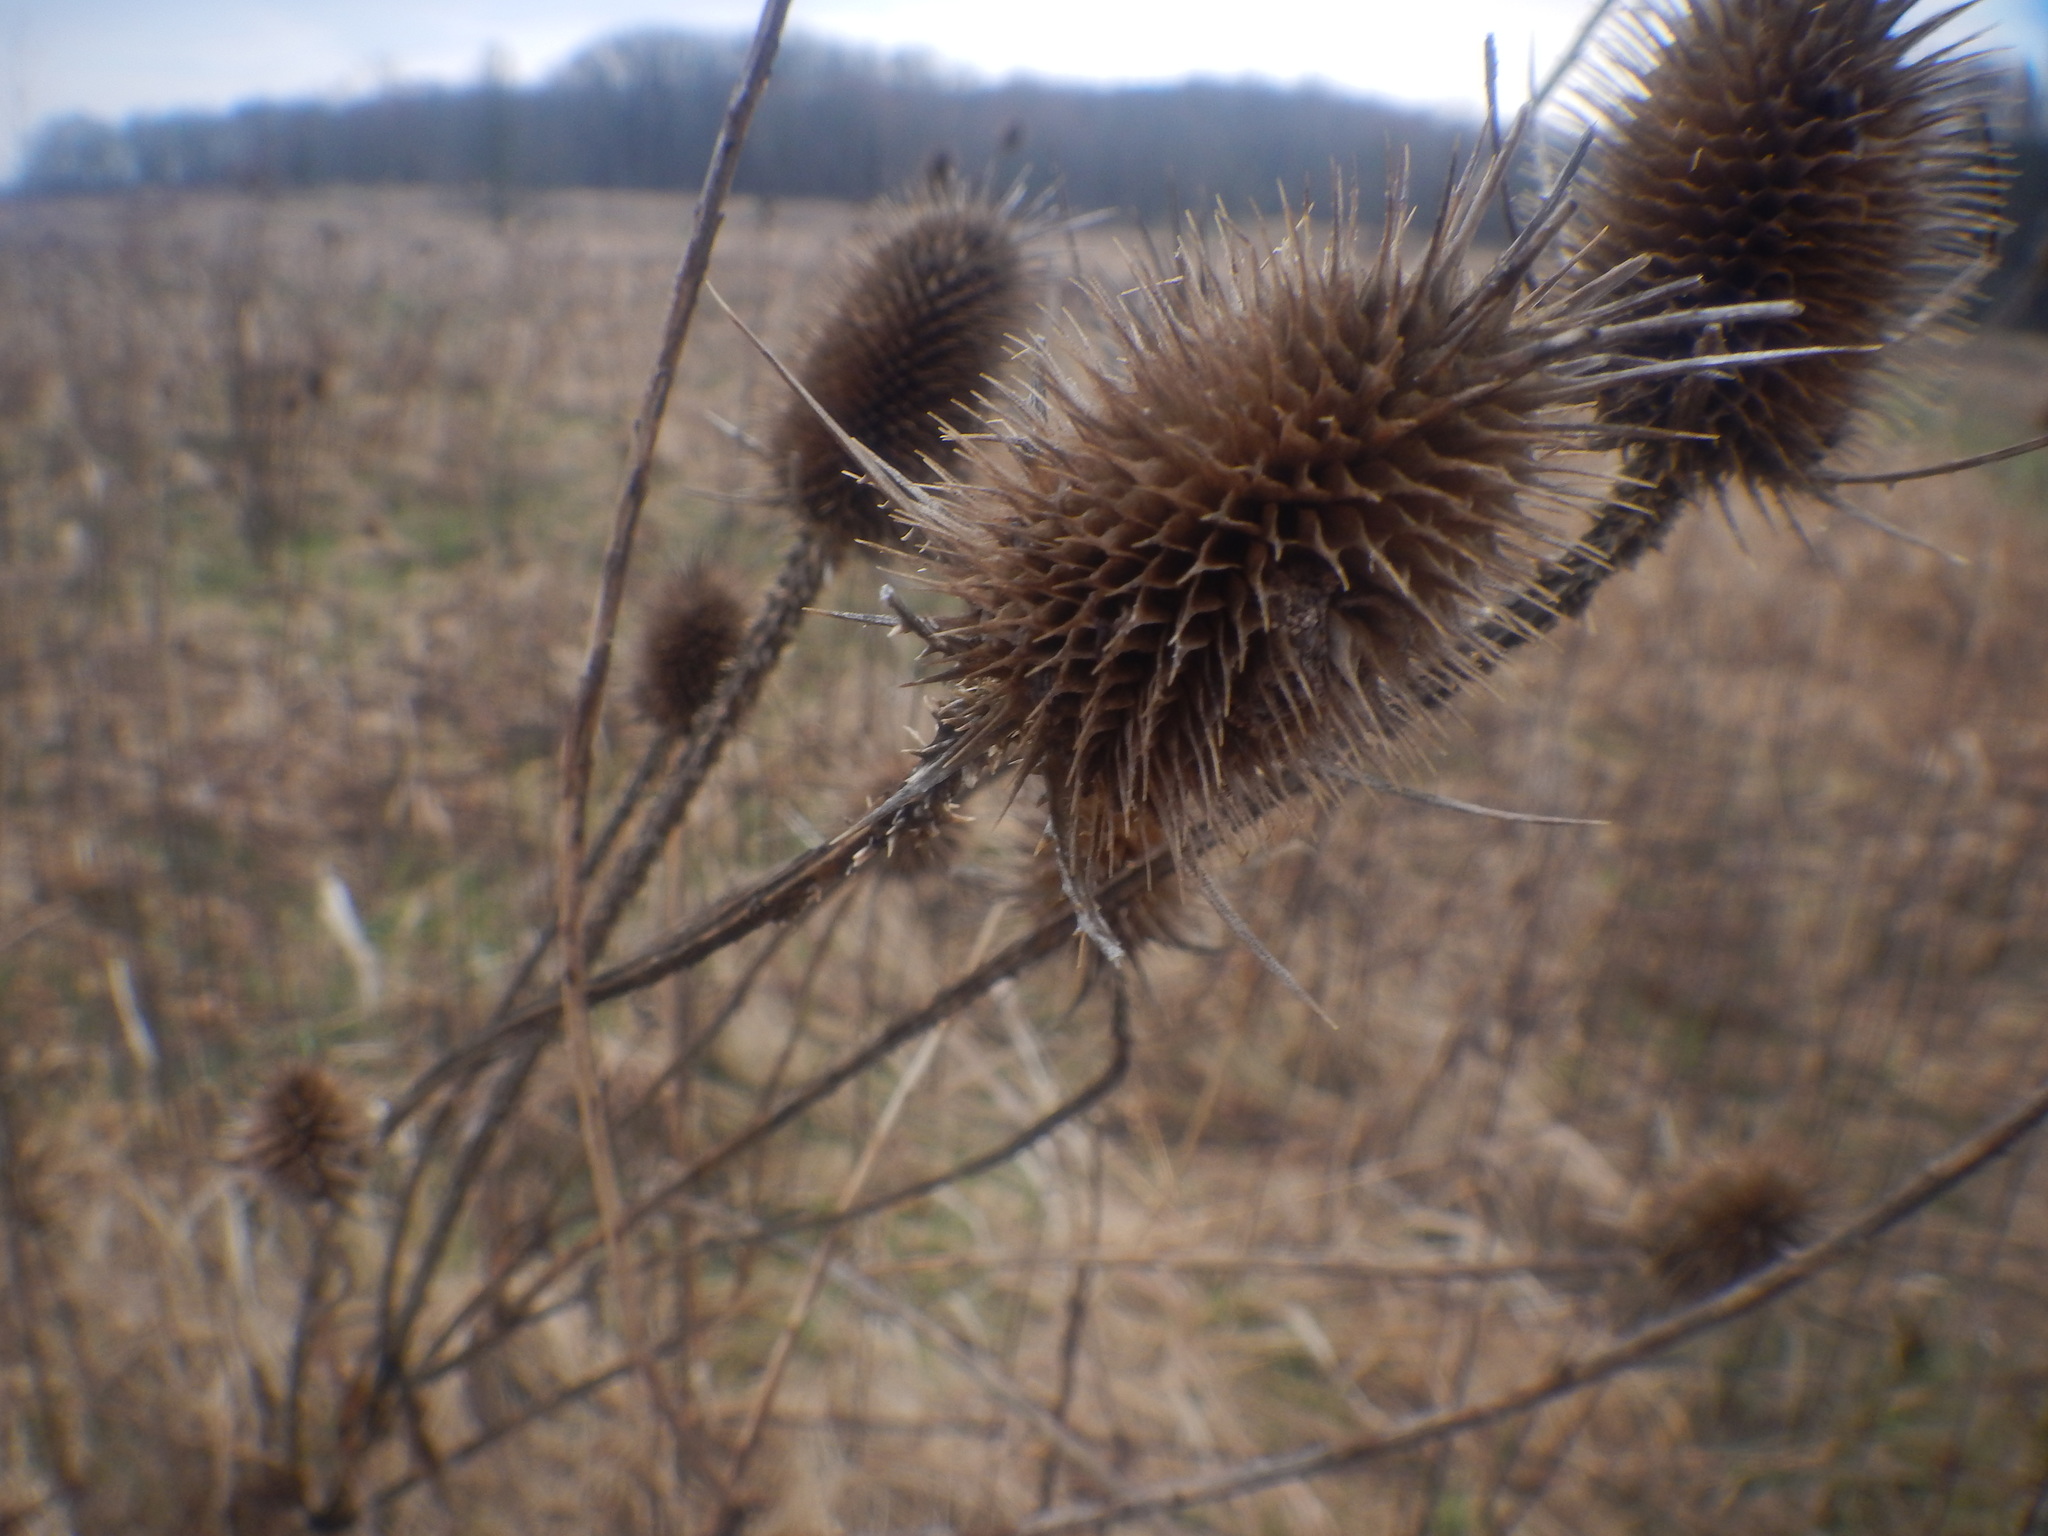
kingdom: Plantae
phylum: Tracheophyta
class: Magnoliopsida
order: Dipsacales
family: Caprifoliaceae
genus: Dipsacus
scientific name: Dipsacus fullonum
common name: Teasel
